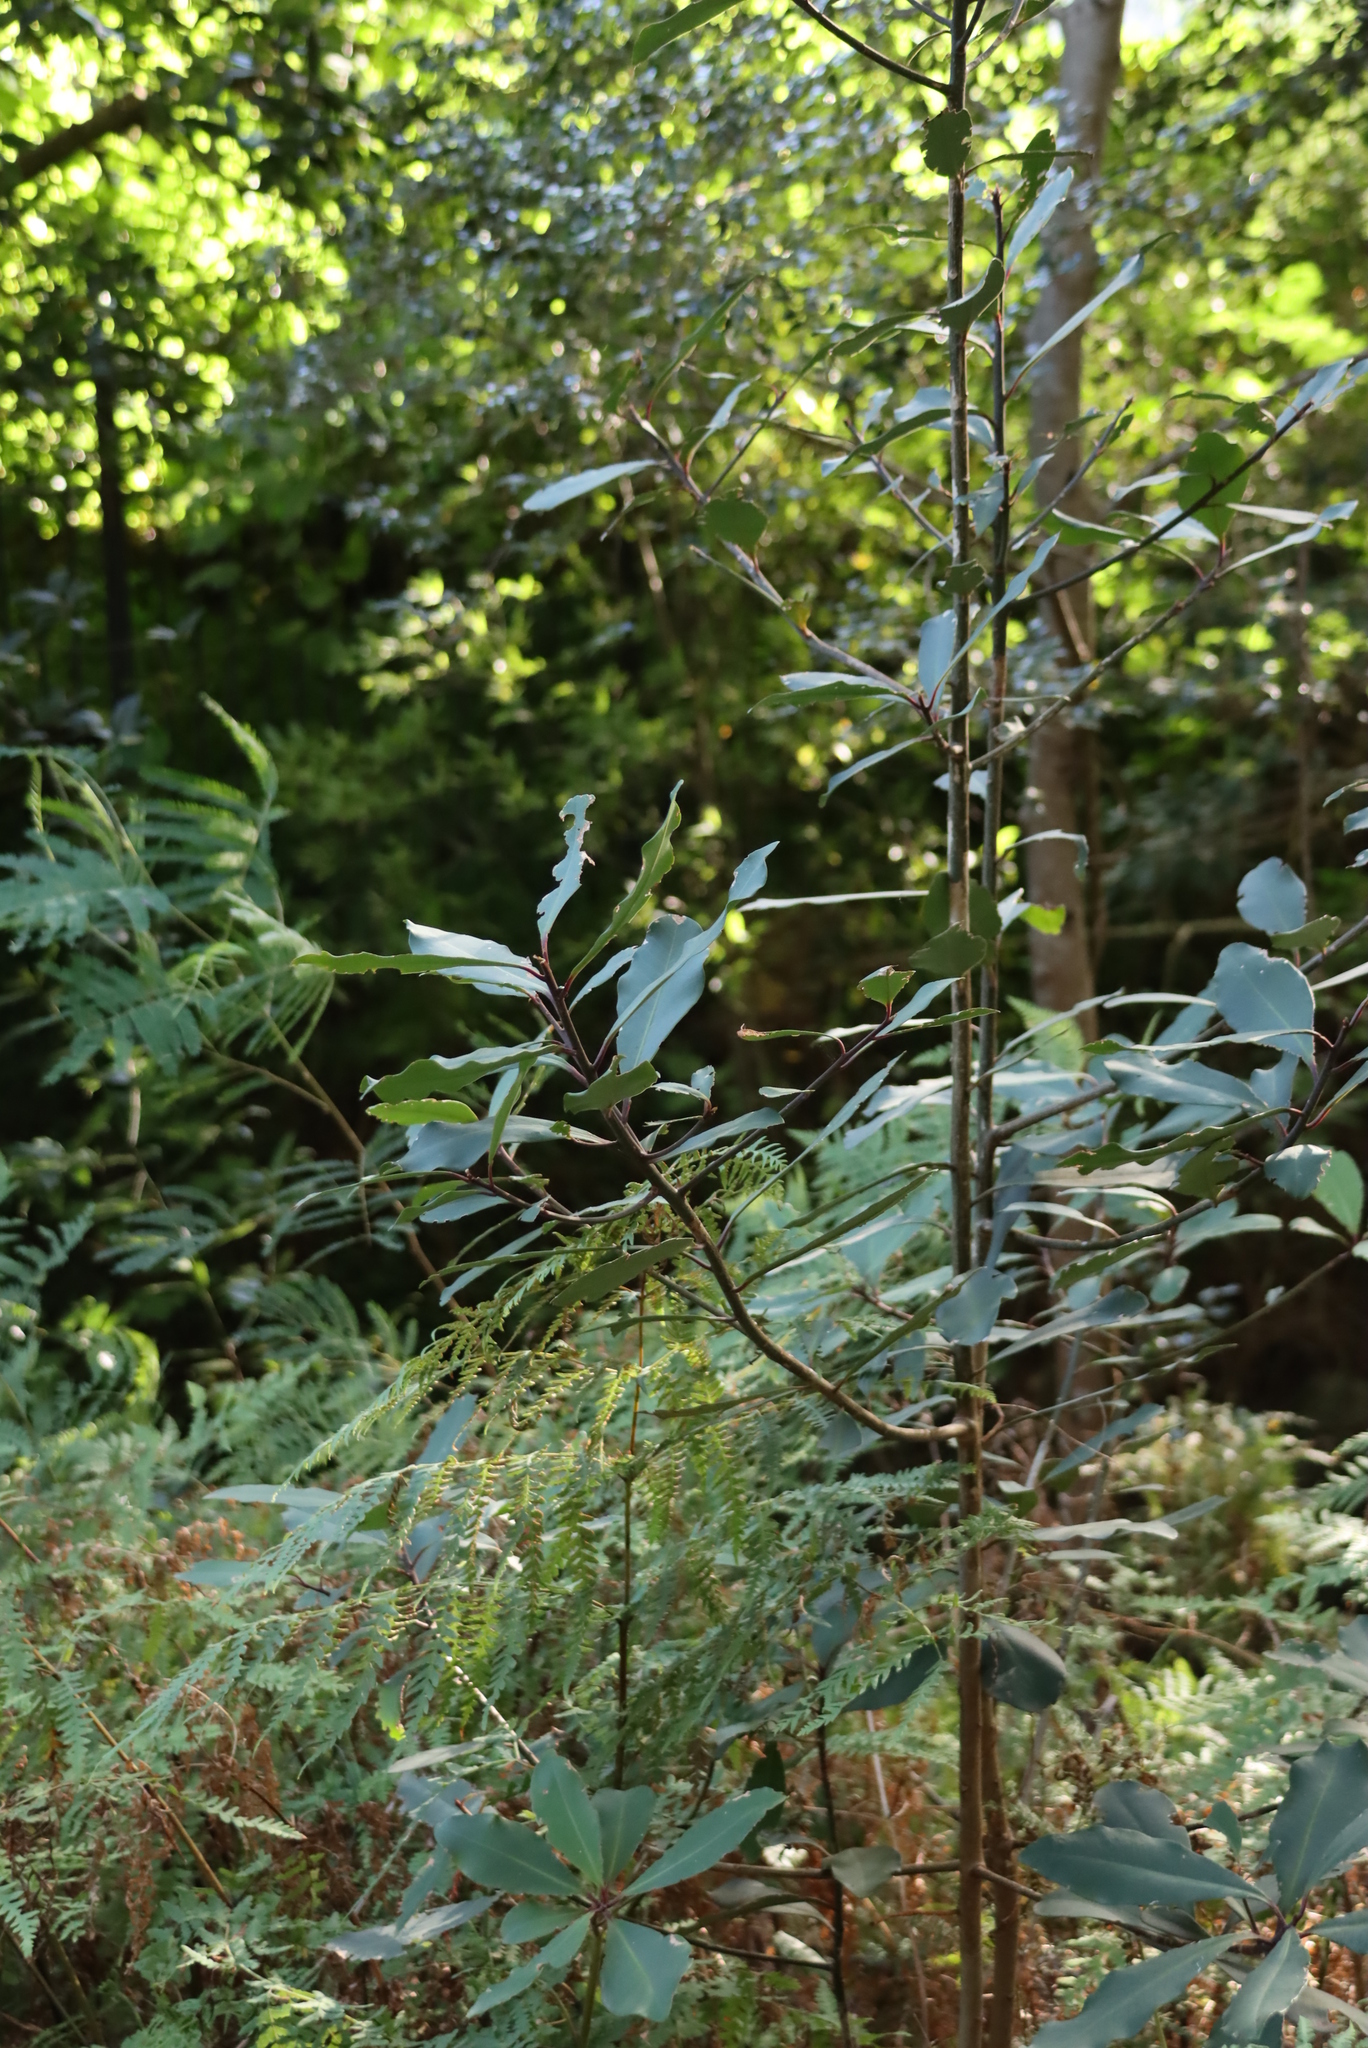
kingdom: Plantae
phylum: Tracheophyta
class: Magnoliopsida
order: Ericales
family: Primulaceae
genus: Myrsine
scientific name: Myrsine melanophloeos
